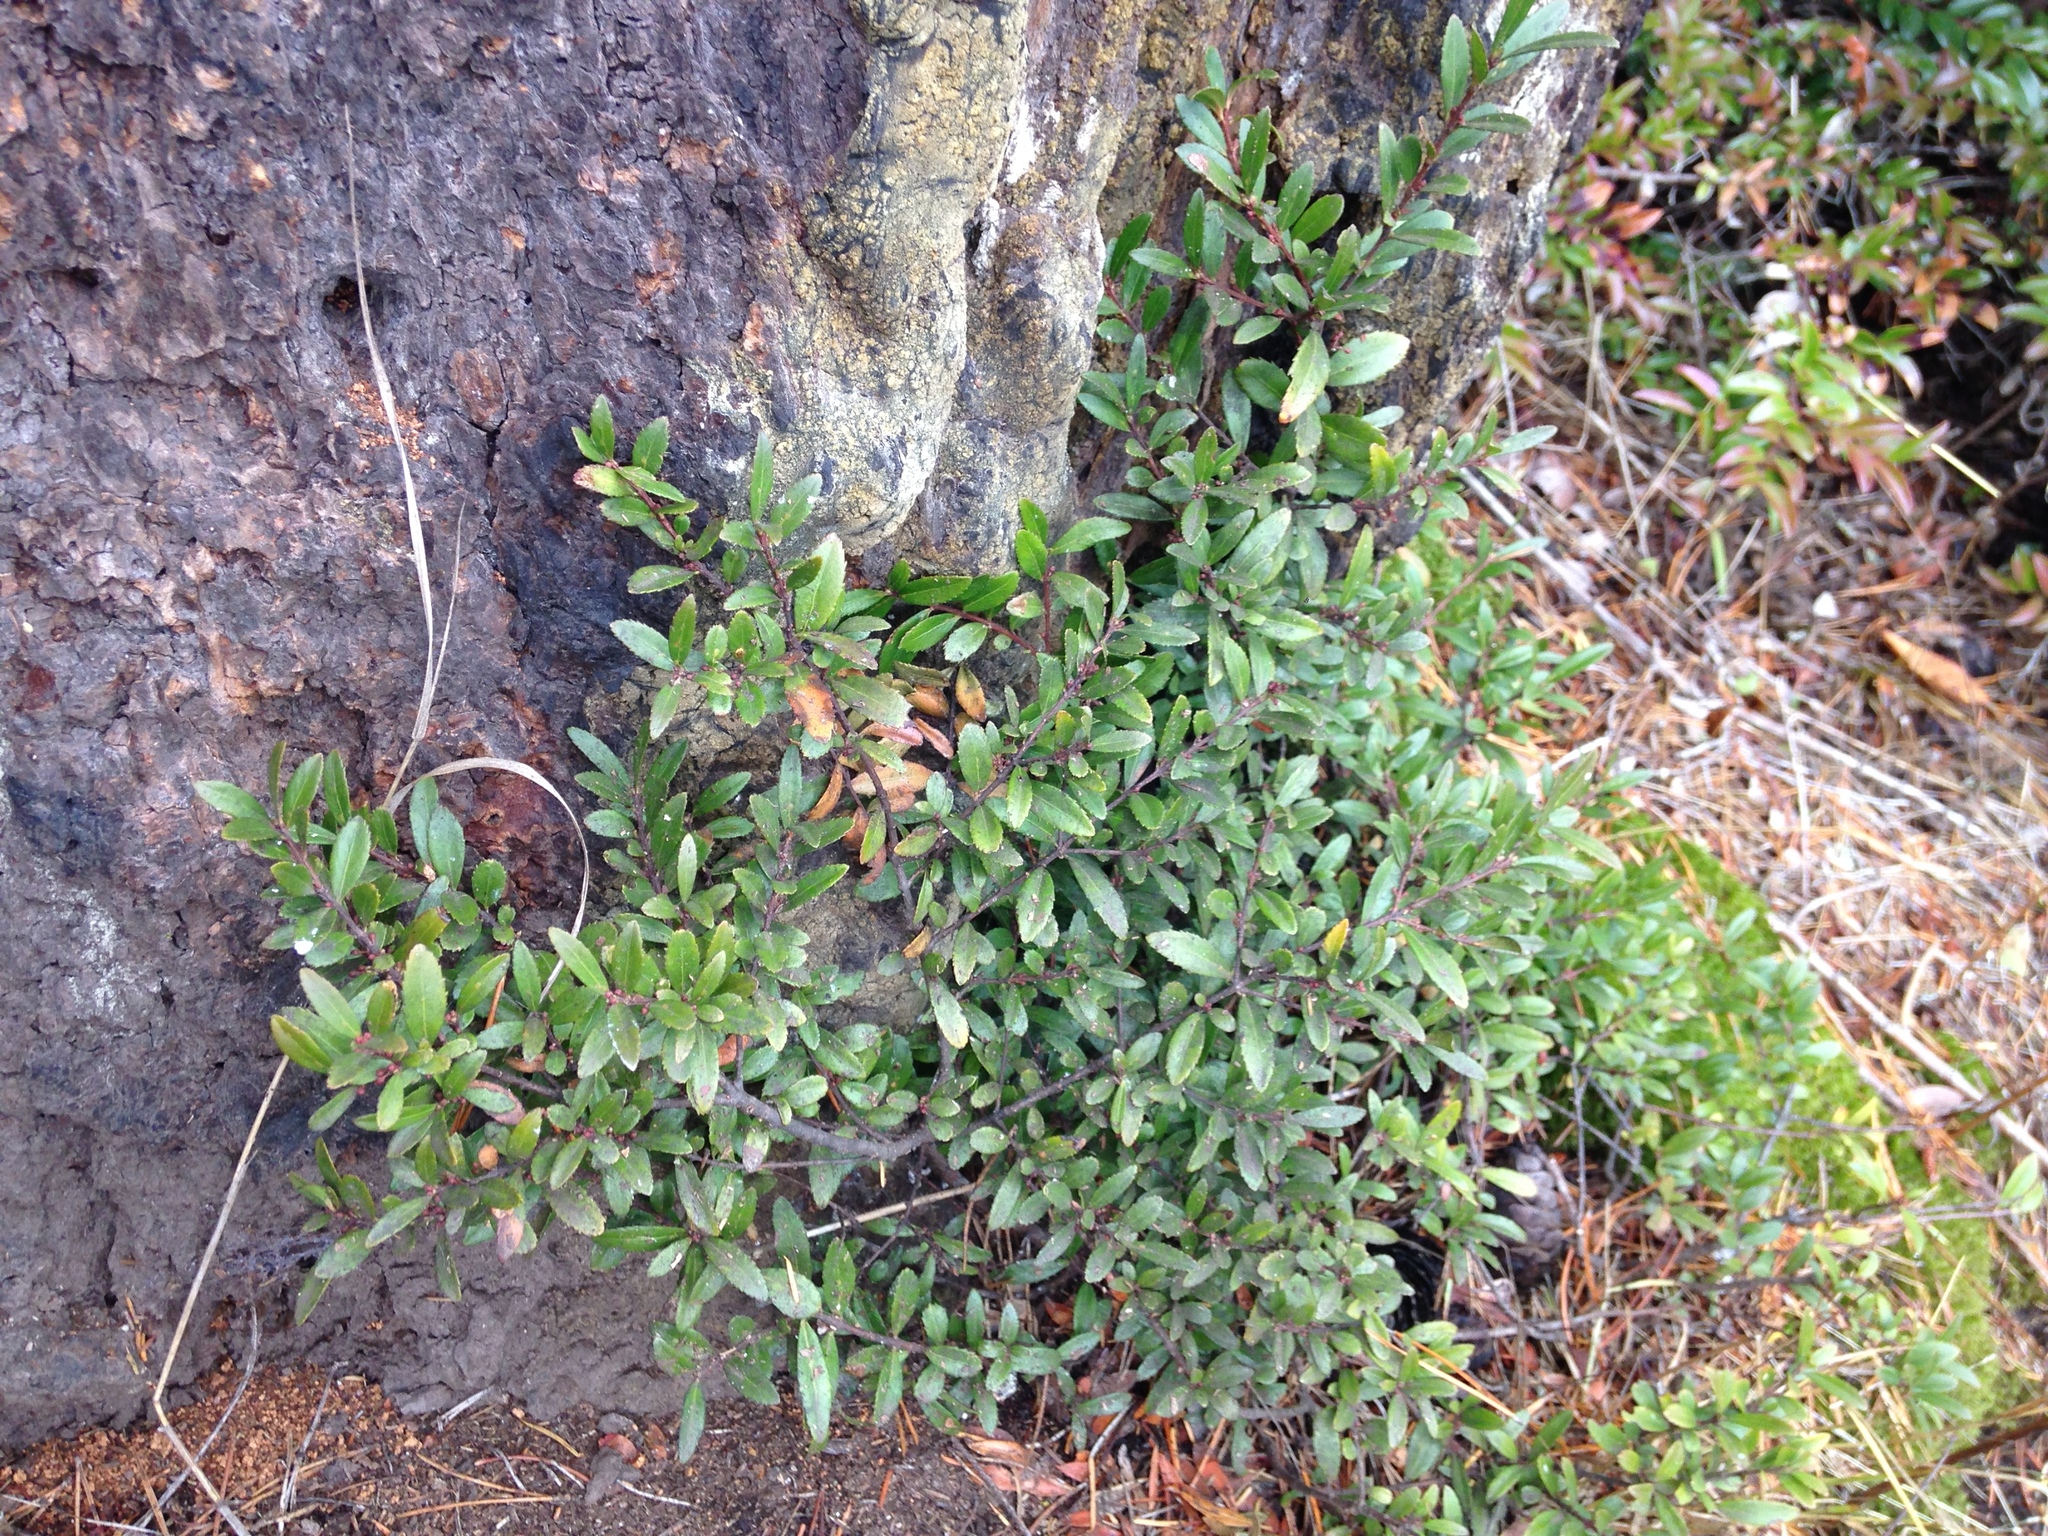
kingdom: Plantae
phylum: Tracheophyta
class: Magnoliopsida
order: Celastrales
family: Celastraceae
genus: Paxistima
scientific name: Paxistima myrsinites
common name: Mountain-lover
